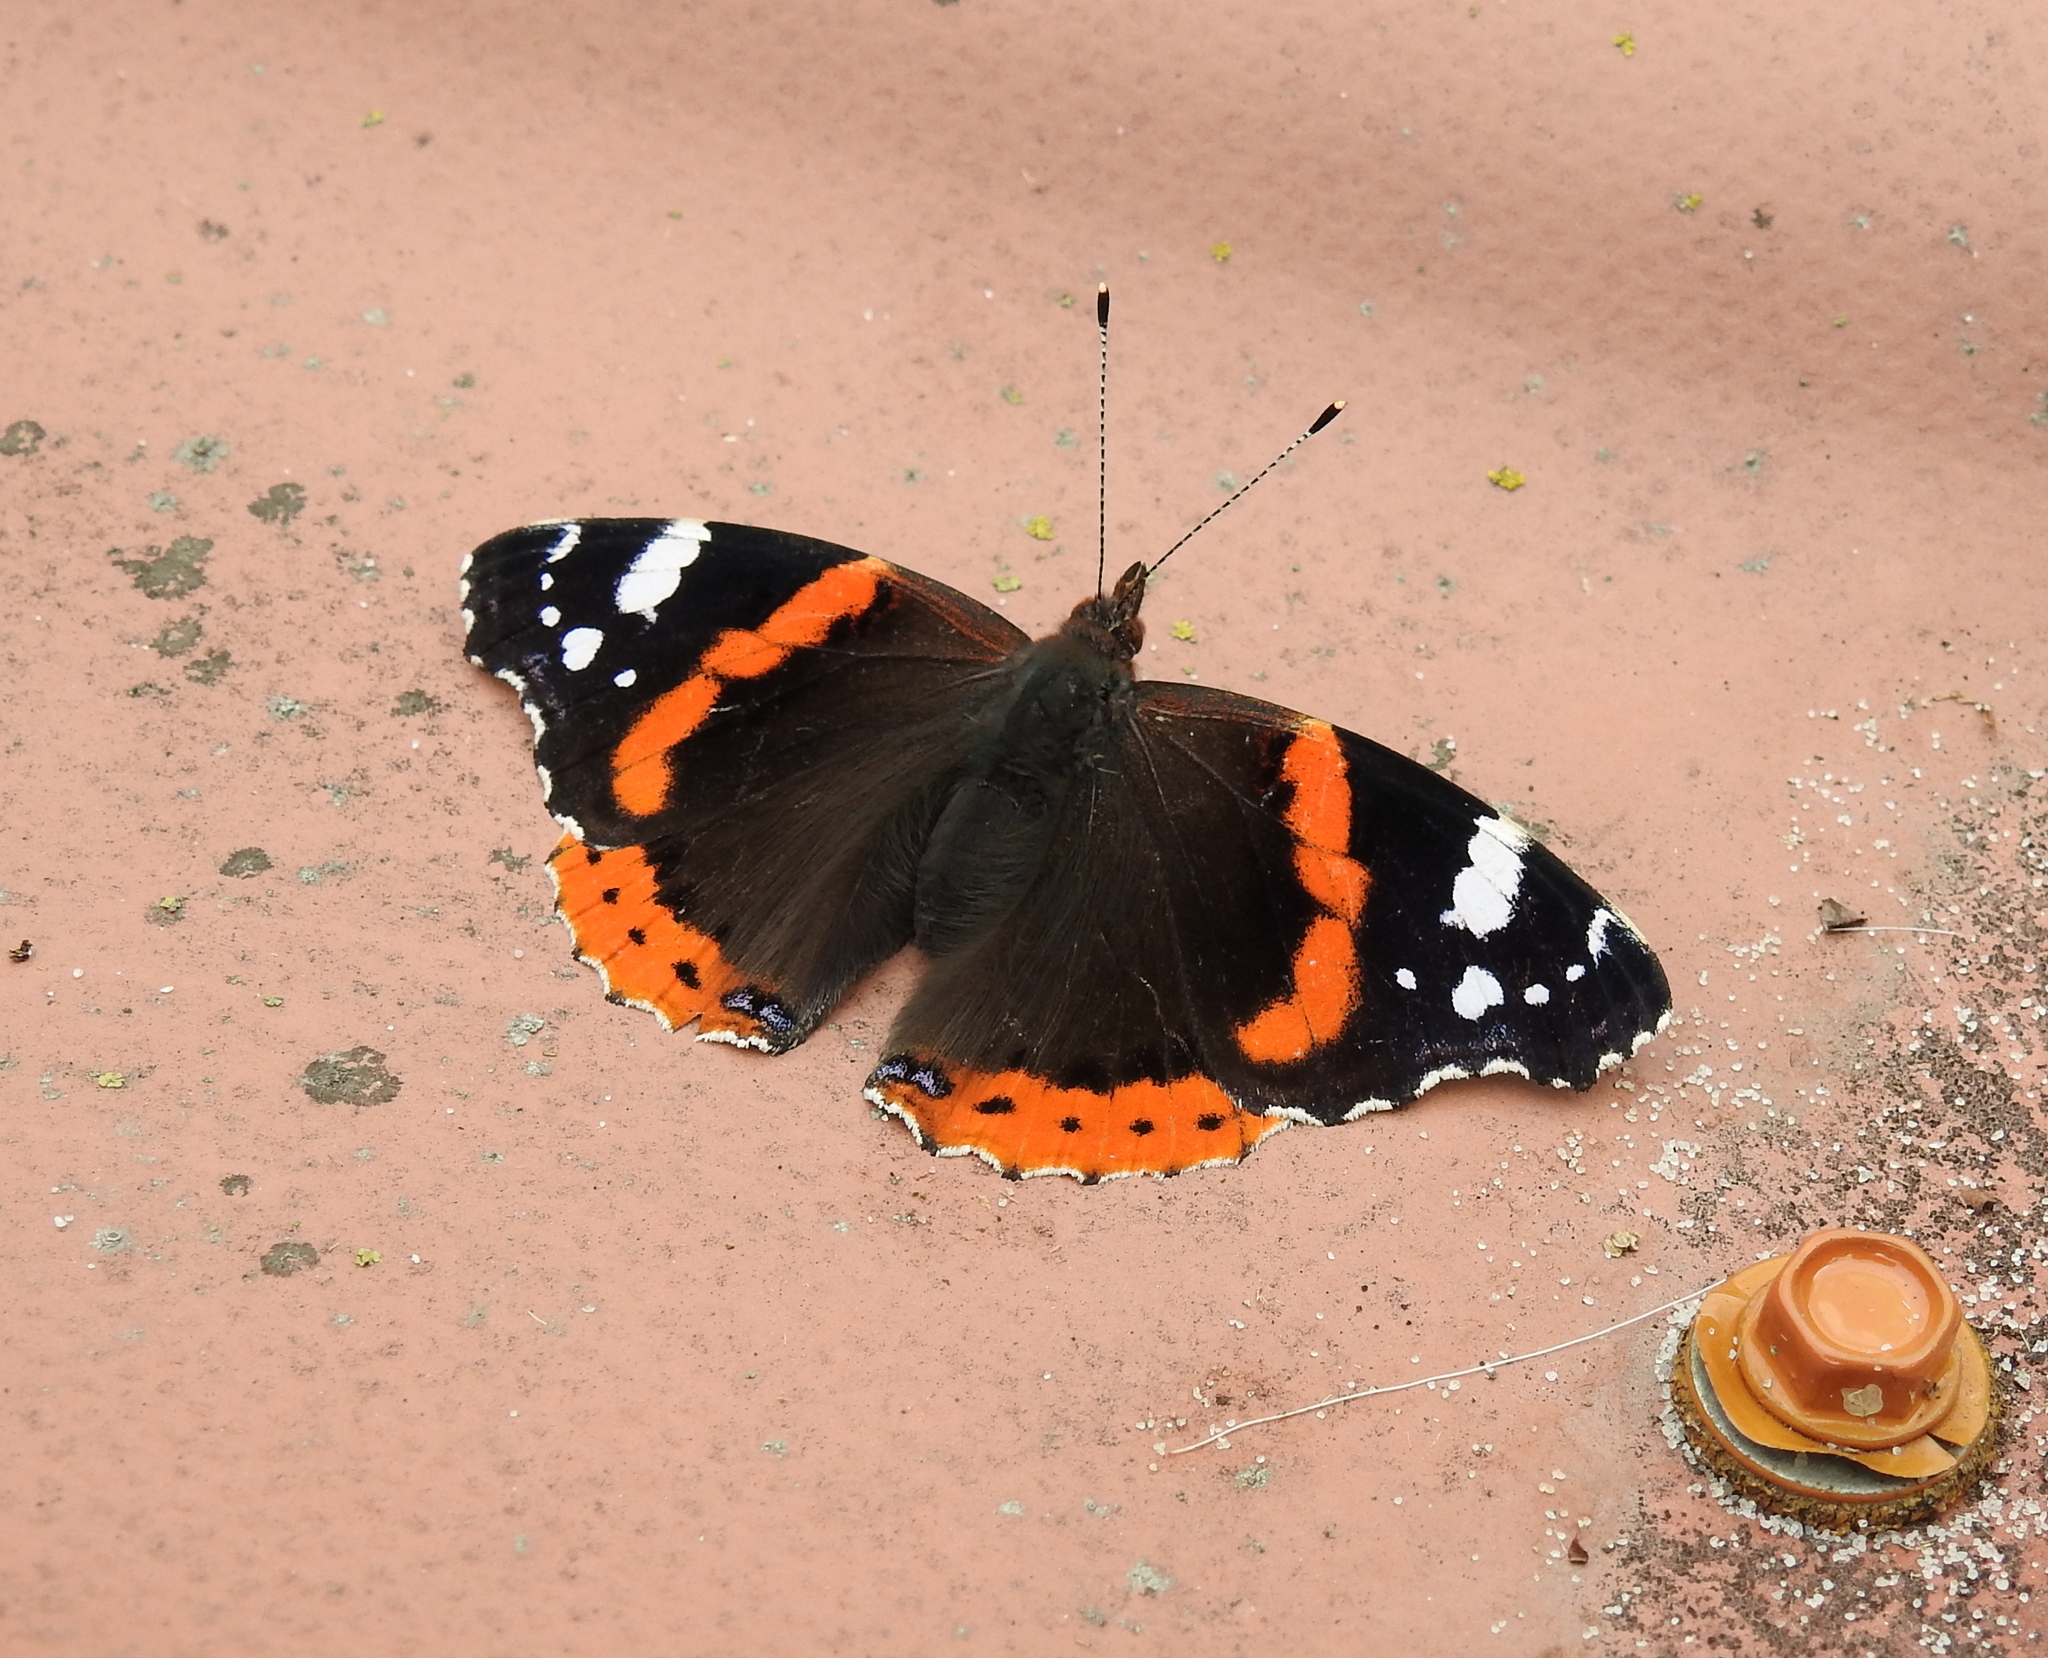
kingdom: Animalia
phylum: Arthropoda
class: Insecta
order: Lepidoptera
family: Nymphalidae
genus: Vanessa
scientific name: Vanessa atalanta
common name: Red admiral
